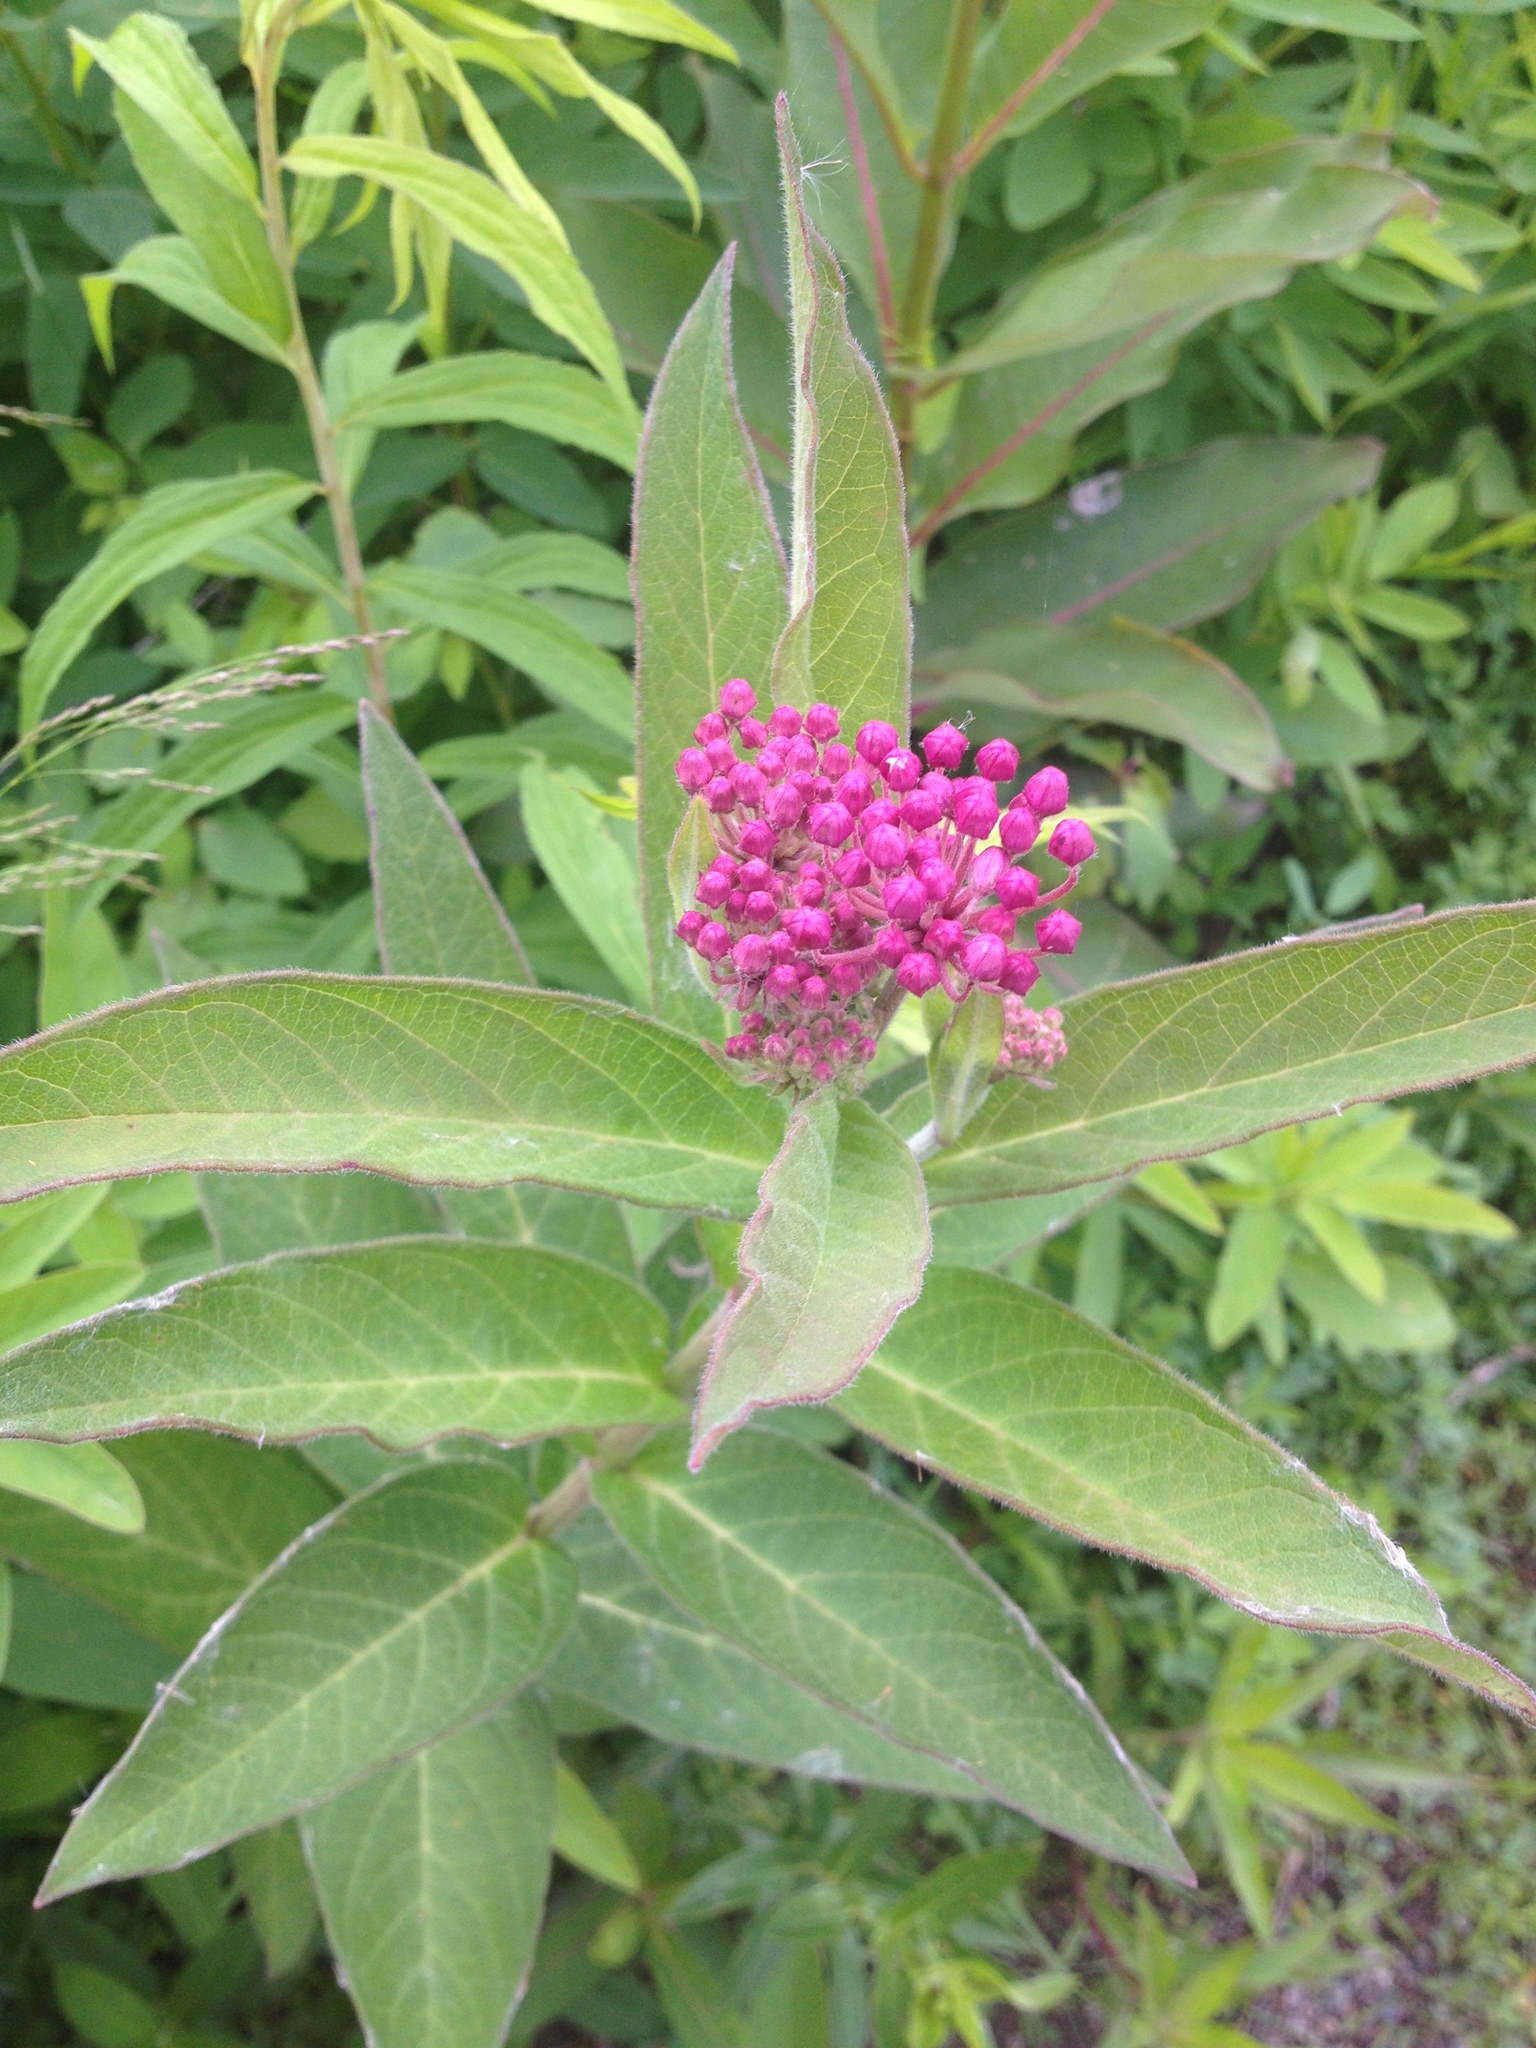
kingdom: Plantae
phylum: Tracheophyta
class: Magnoliopsida
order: Gentianales
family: Apocynaceae
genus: Asclepias
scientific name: Asclepias incarnata
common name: Swamp milkweed
